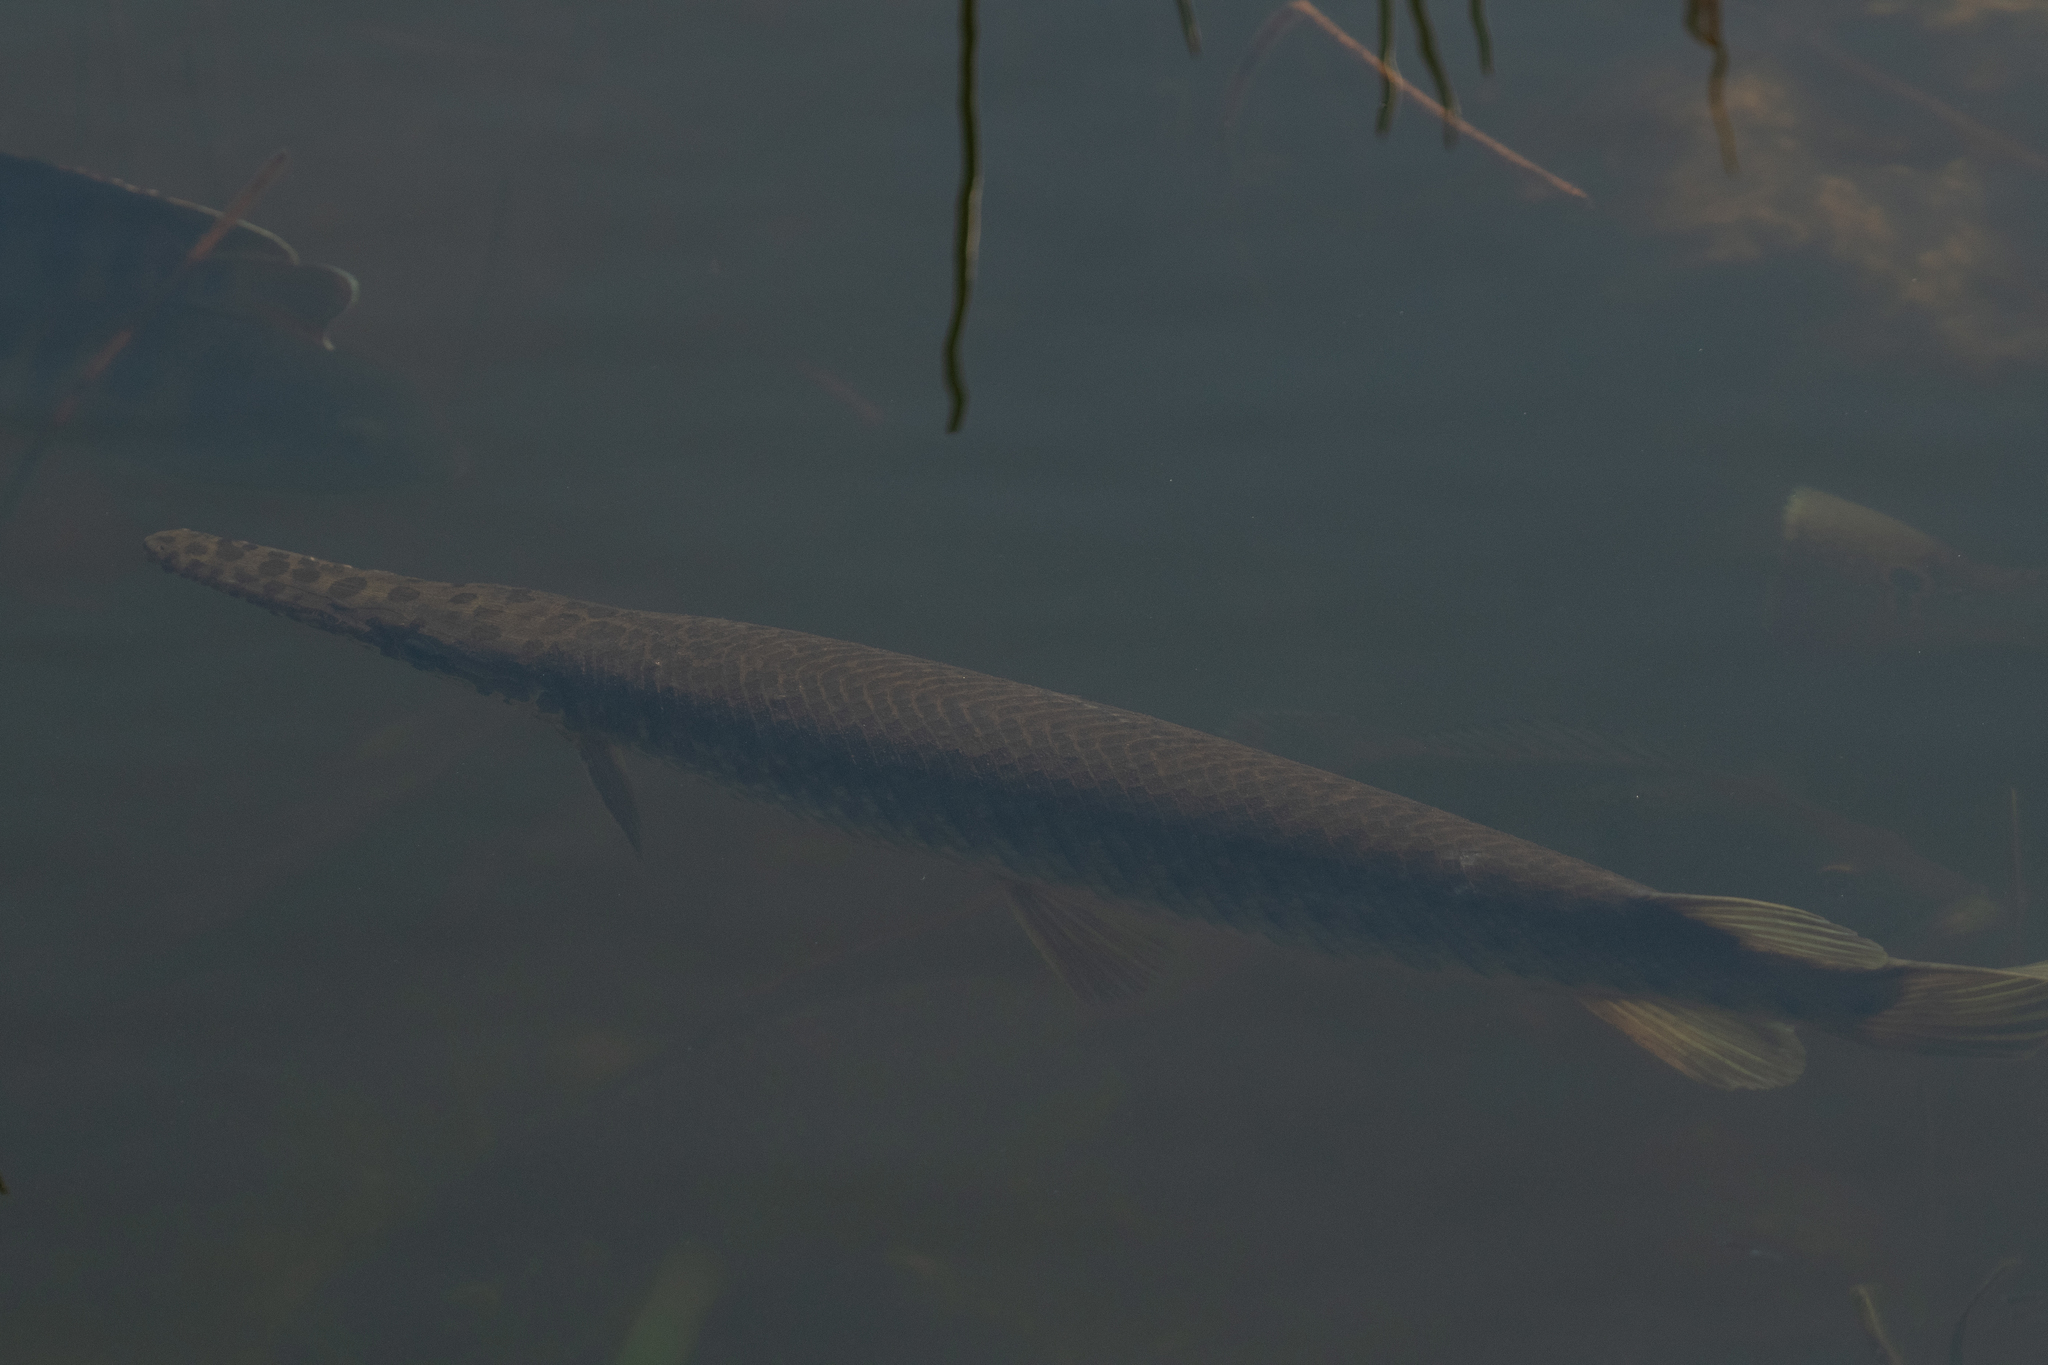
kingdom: Animalia
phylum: Chordata
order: Lepisosteiformes
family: Lepisosteidae
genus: Lepisosteus
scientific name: Lepisosteus platyrhincus
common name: Florida gar
